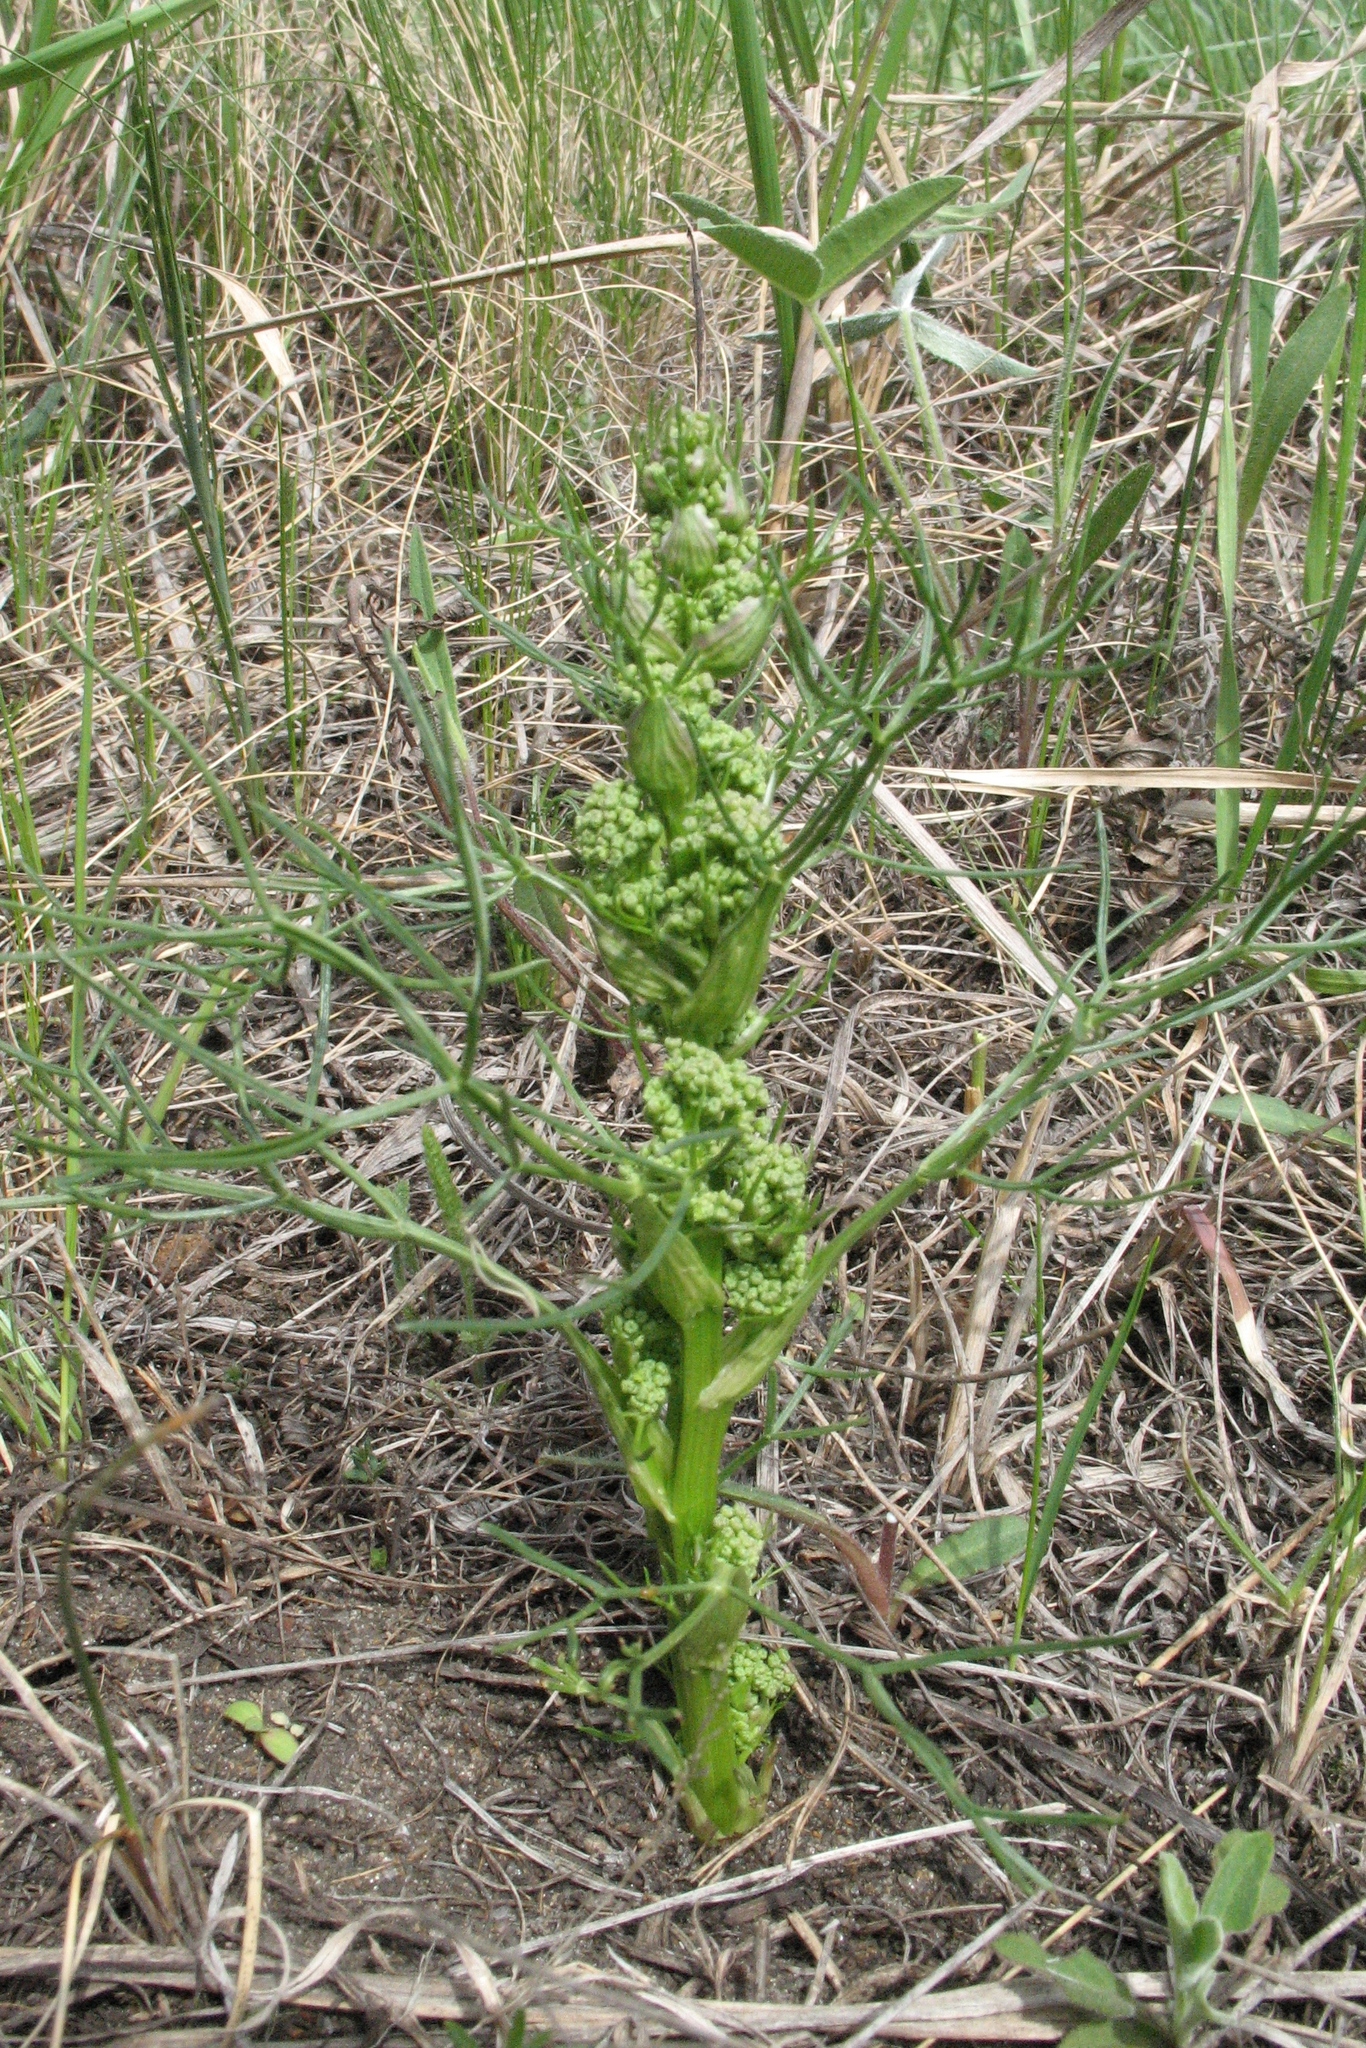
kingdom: Plantae
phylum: Tracheophyta
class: Magnoliopsida
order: Apiales
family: Apiaceae
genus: Trinia
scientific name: Trinia multicaulis
